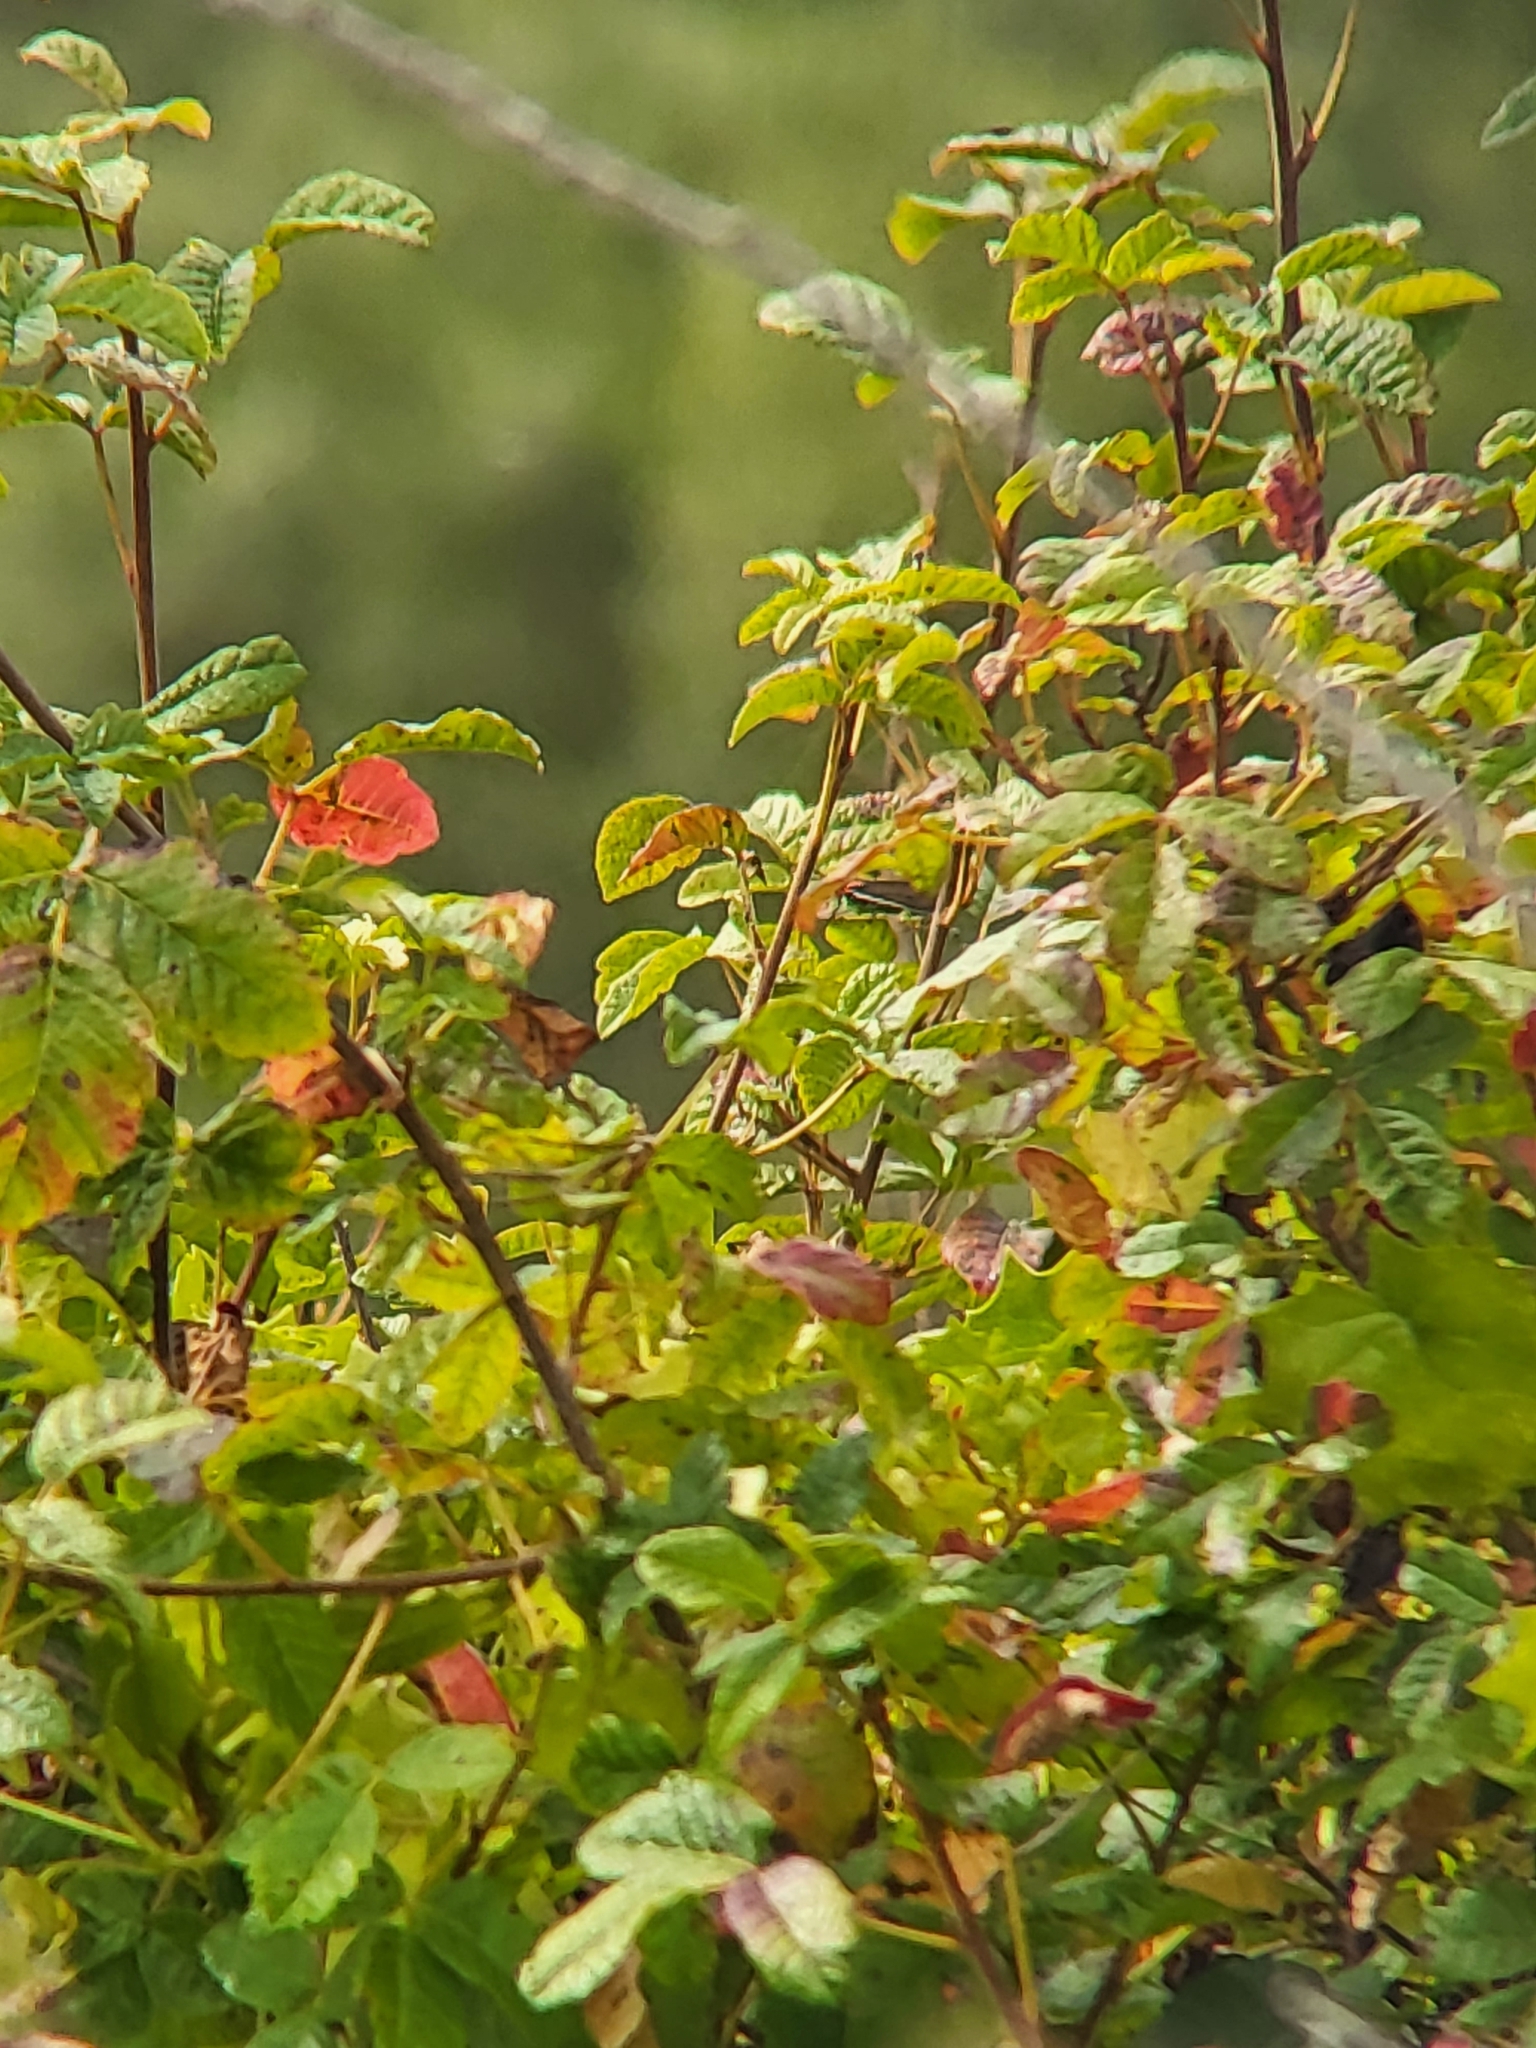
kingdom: Plantae
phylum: Tracheophyta
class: Magnoliopsida
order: Sapindales
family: Anacardiaceae
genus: Toxicodendron
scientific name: Toxicodendron diversilobum
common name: Pacific poison-oak
